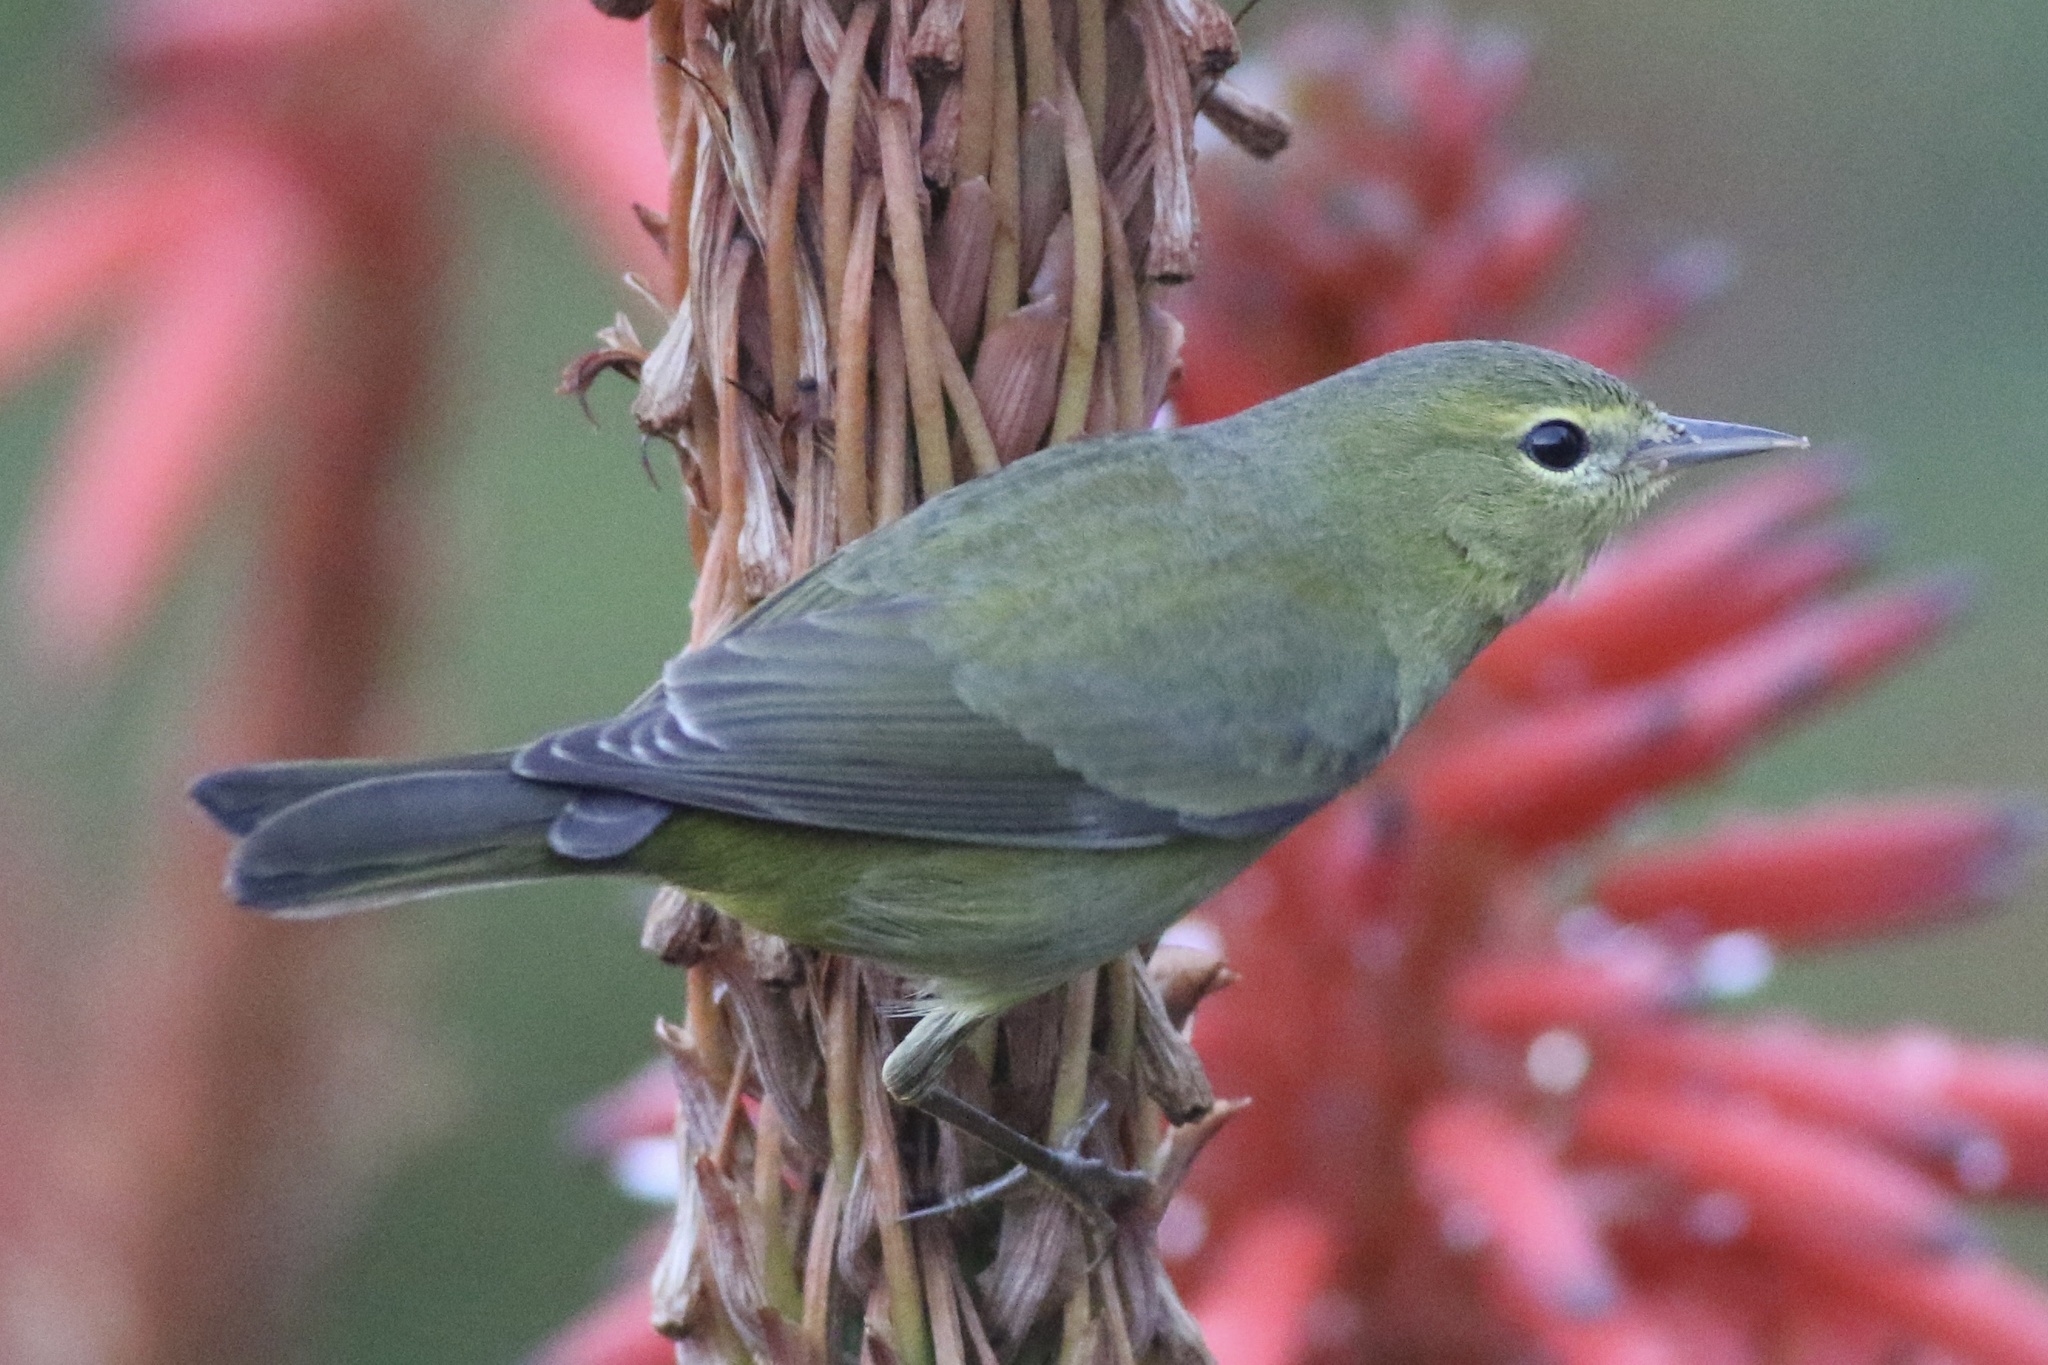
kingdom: Animalia
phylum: Chordata
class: Aves
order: Passeriformes
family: Parulidae
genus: Leiothlypis
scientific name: Leiothlypis celata
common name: Orange-crowned warbler
